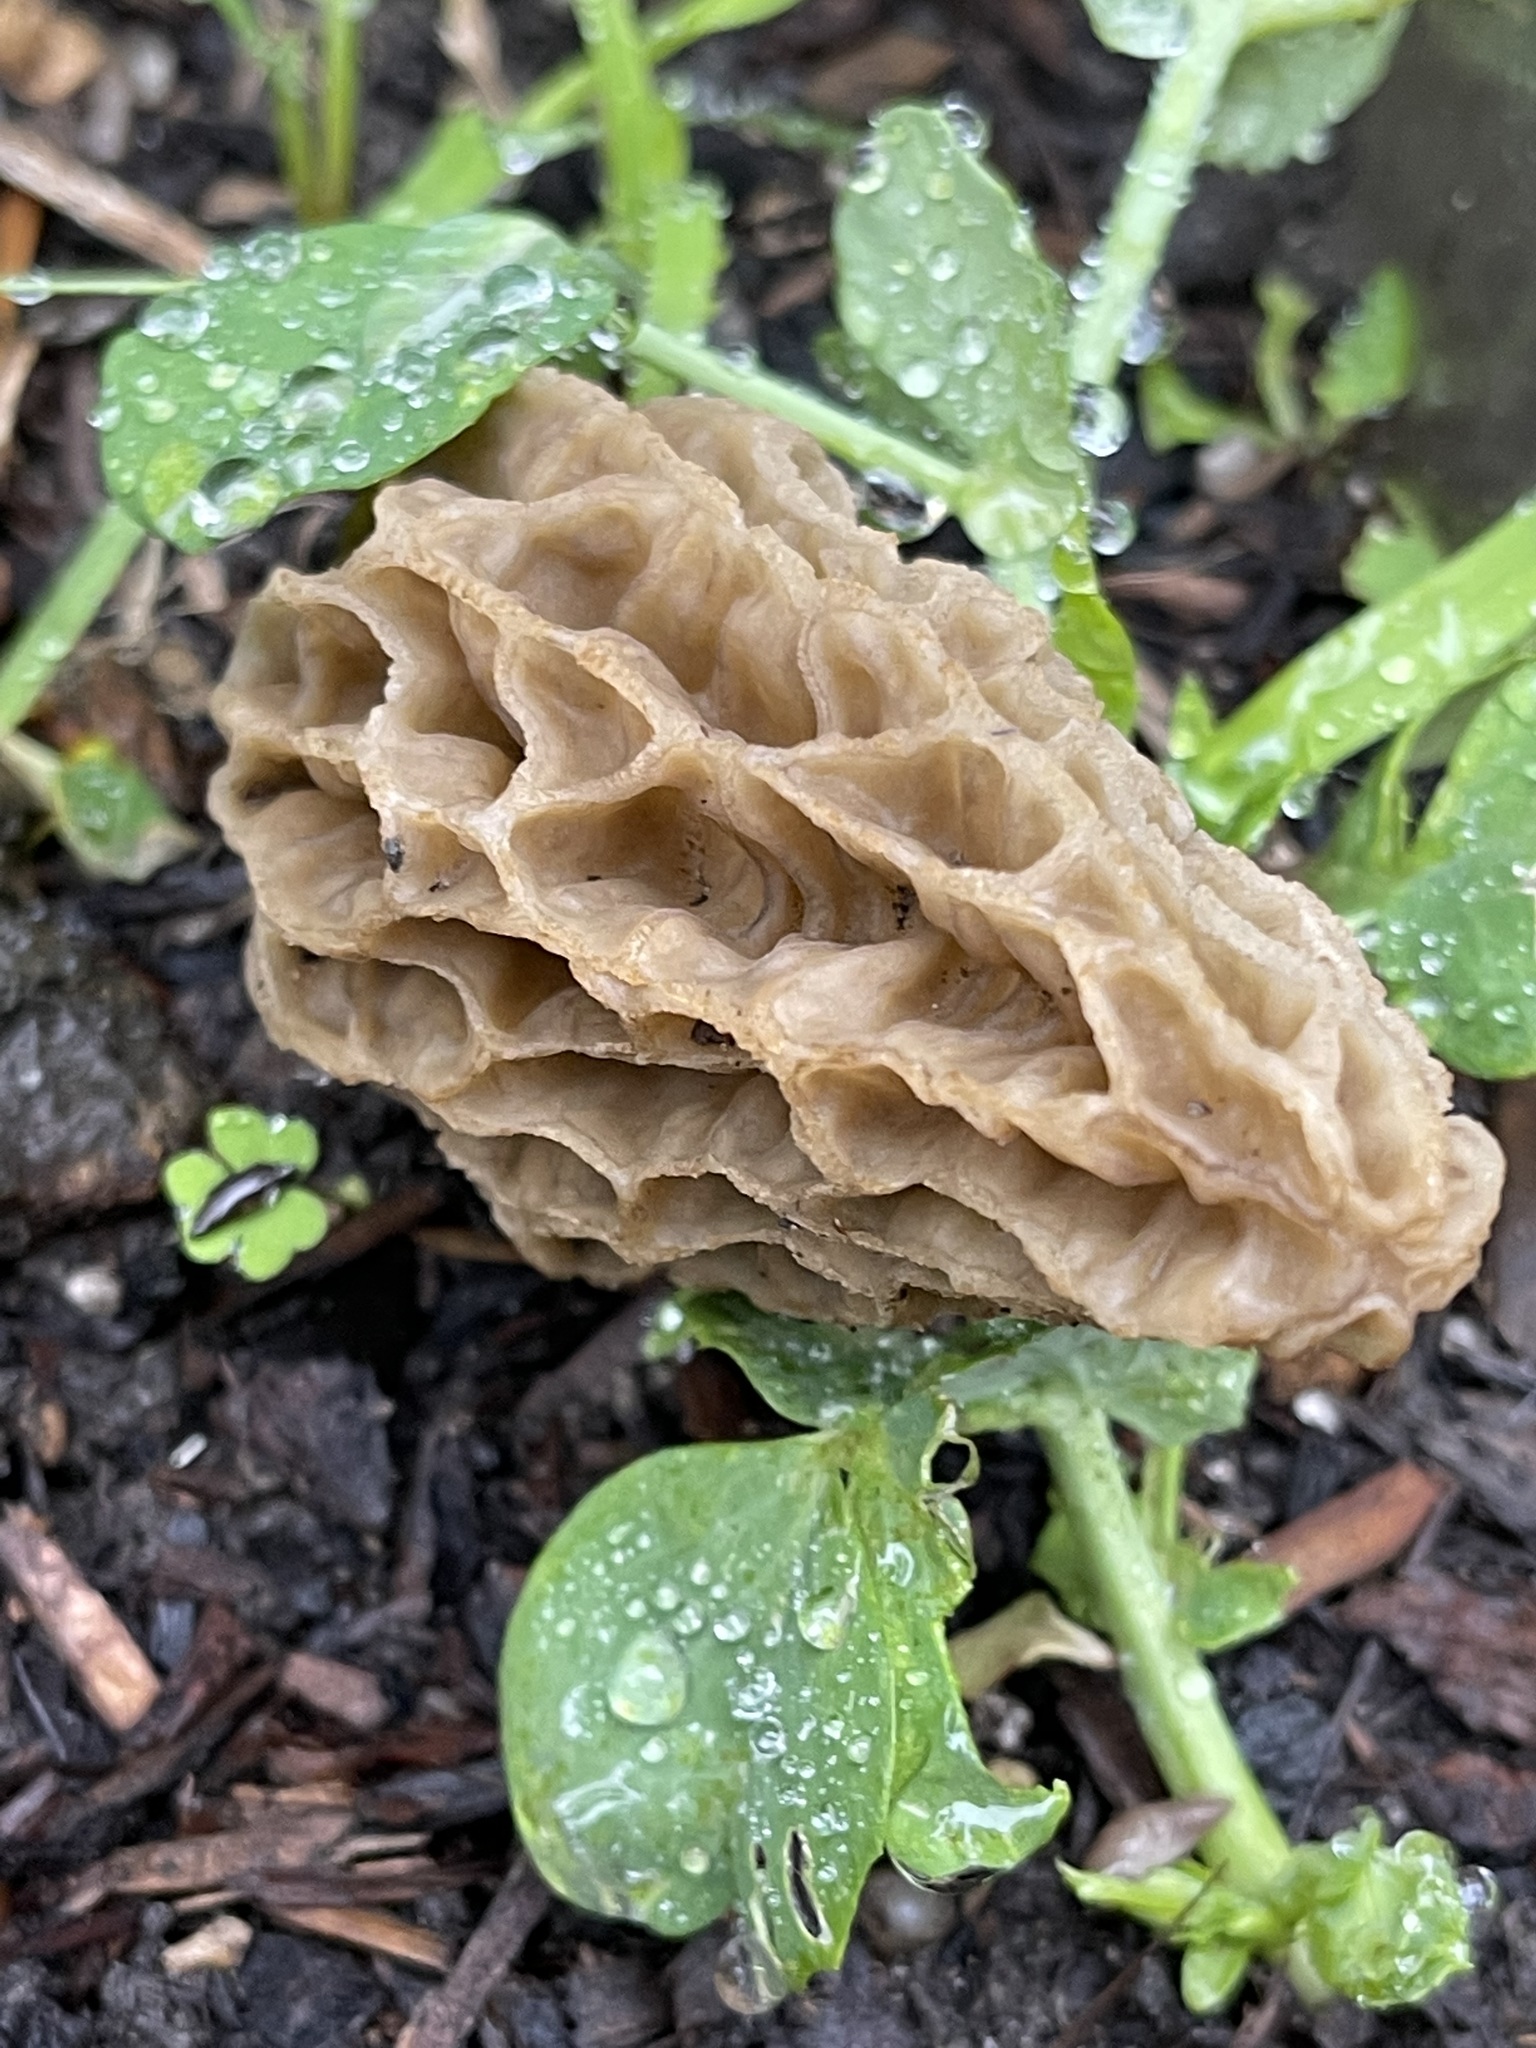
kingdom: Fungi
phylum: Ascomycota
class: Pezizomycetes
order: Pezizales
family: Morchellaceae
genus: Morchella
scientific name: Morchella rufobrunnea
